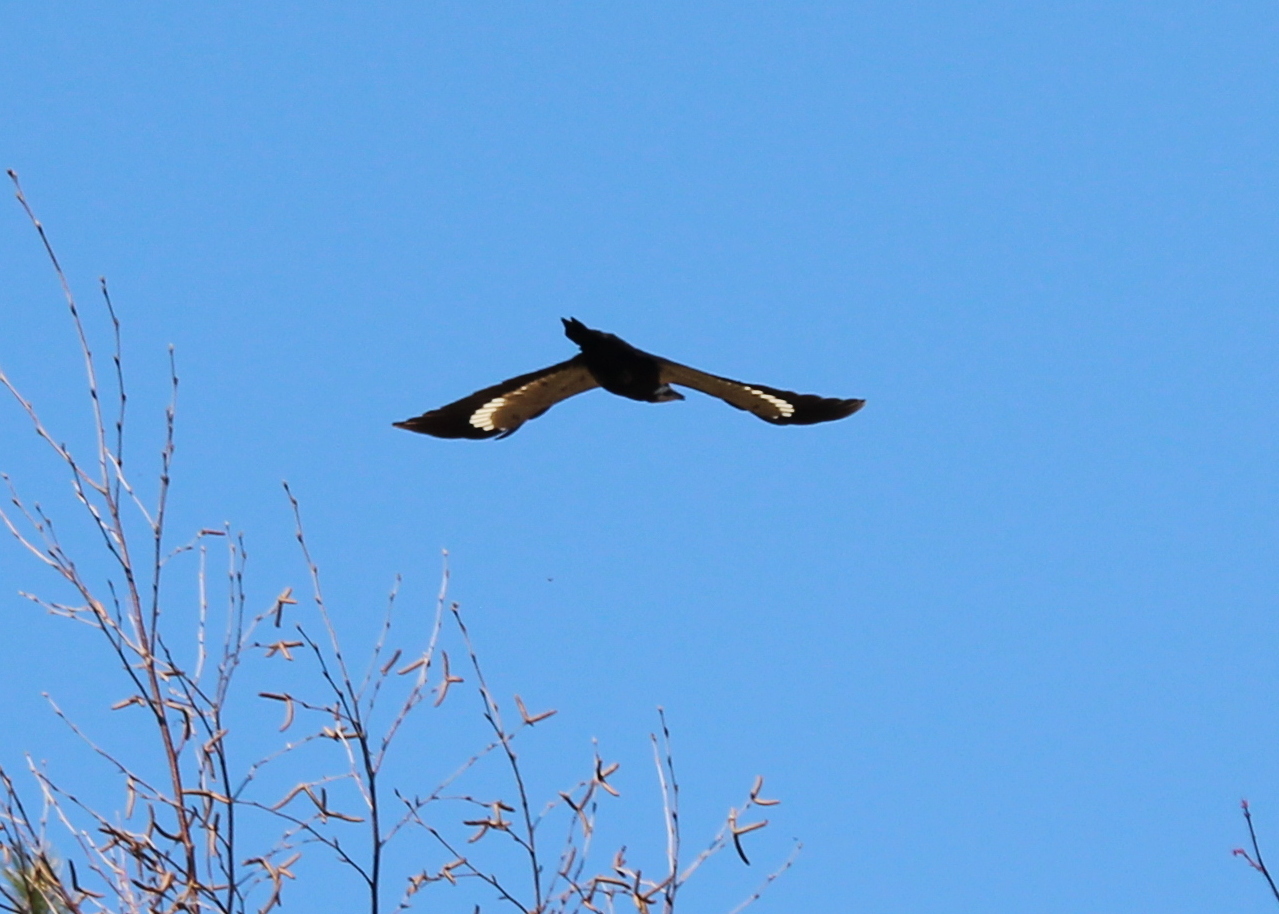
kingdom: Animalia
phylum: Chordata
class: Aves
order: Piciformes
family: Picidae
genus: Dryocopus
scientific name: Dryocopus pileatus
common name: Pileated woodpecker
